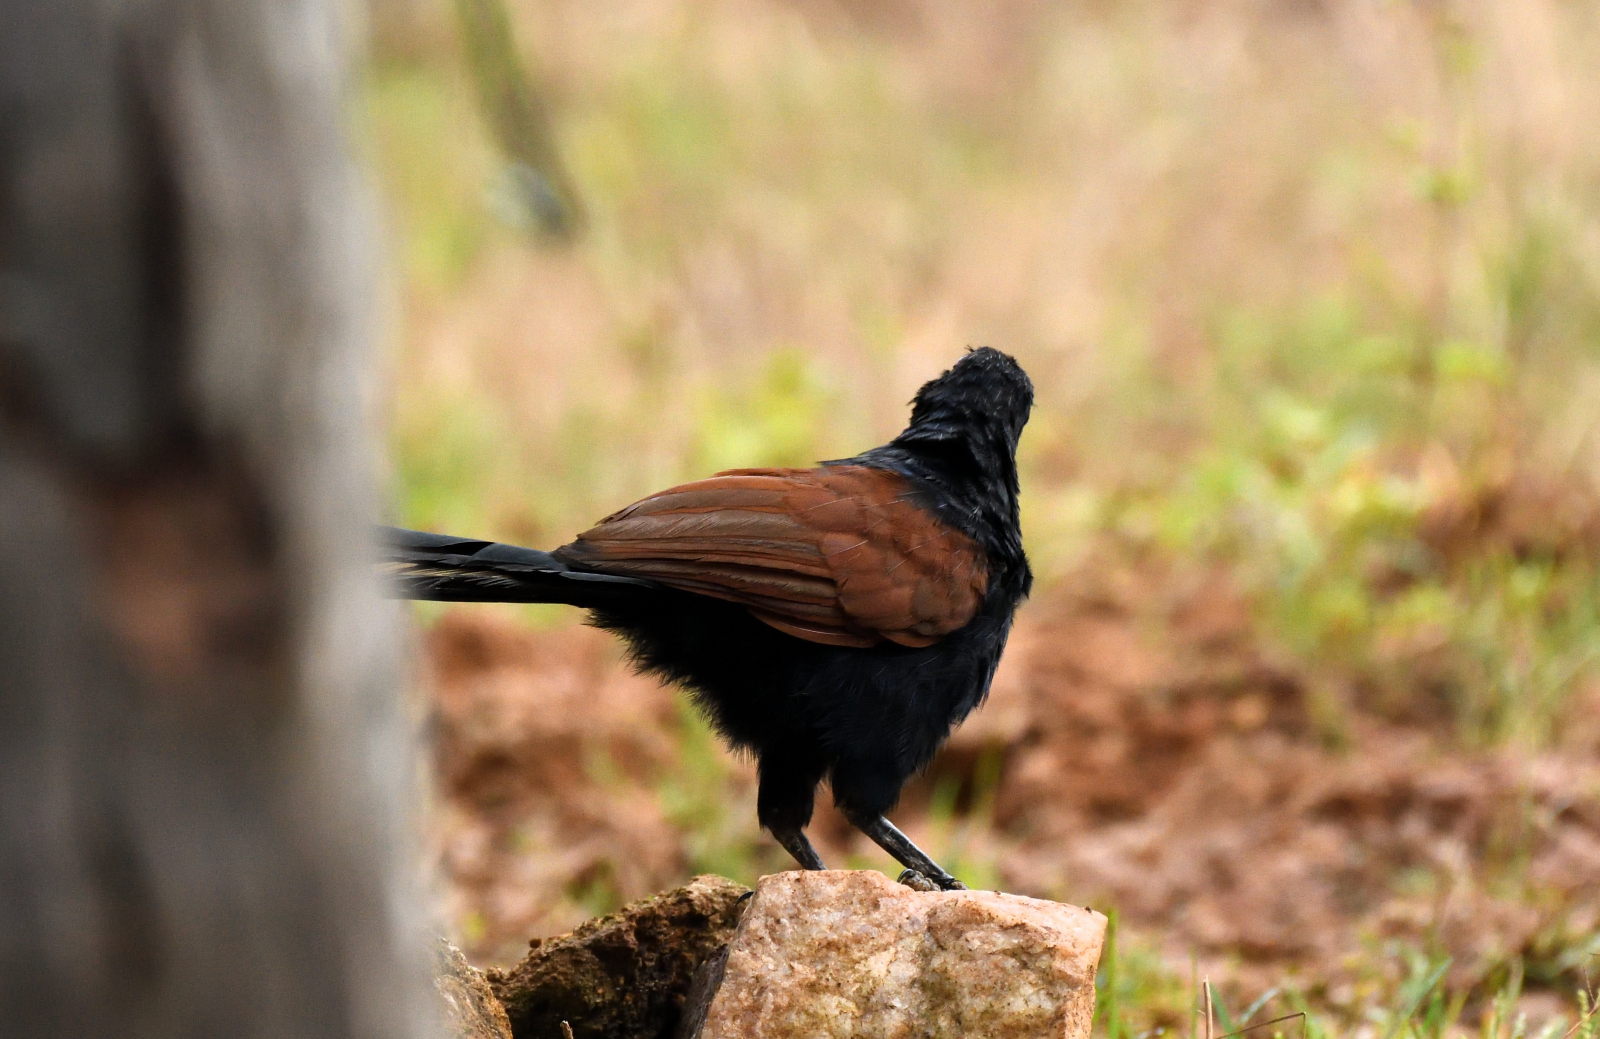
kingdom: Animalia
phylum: Chordata
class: Aves
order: Cuculiformes
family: Cuculidae
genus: Centropus
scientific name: Centropus sinensis
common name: Greater coucal
